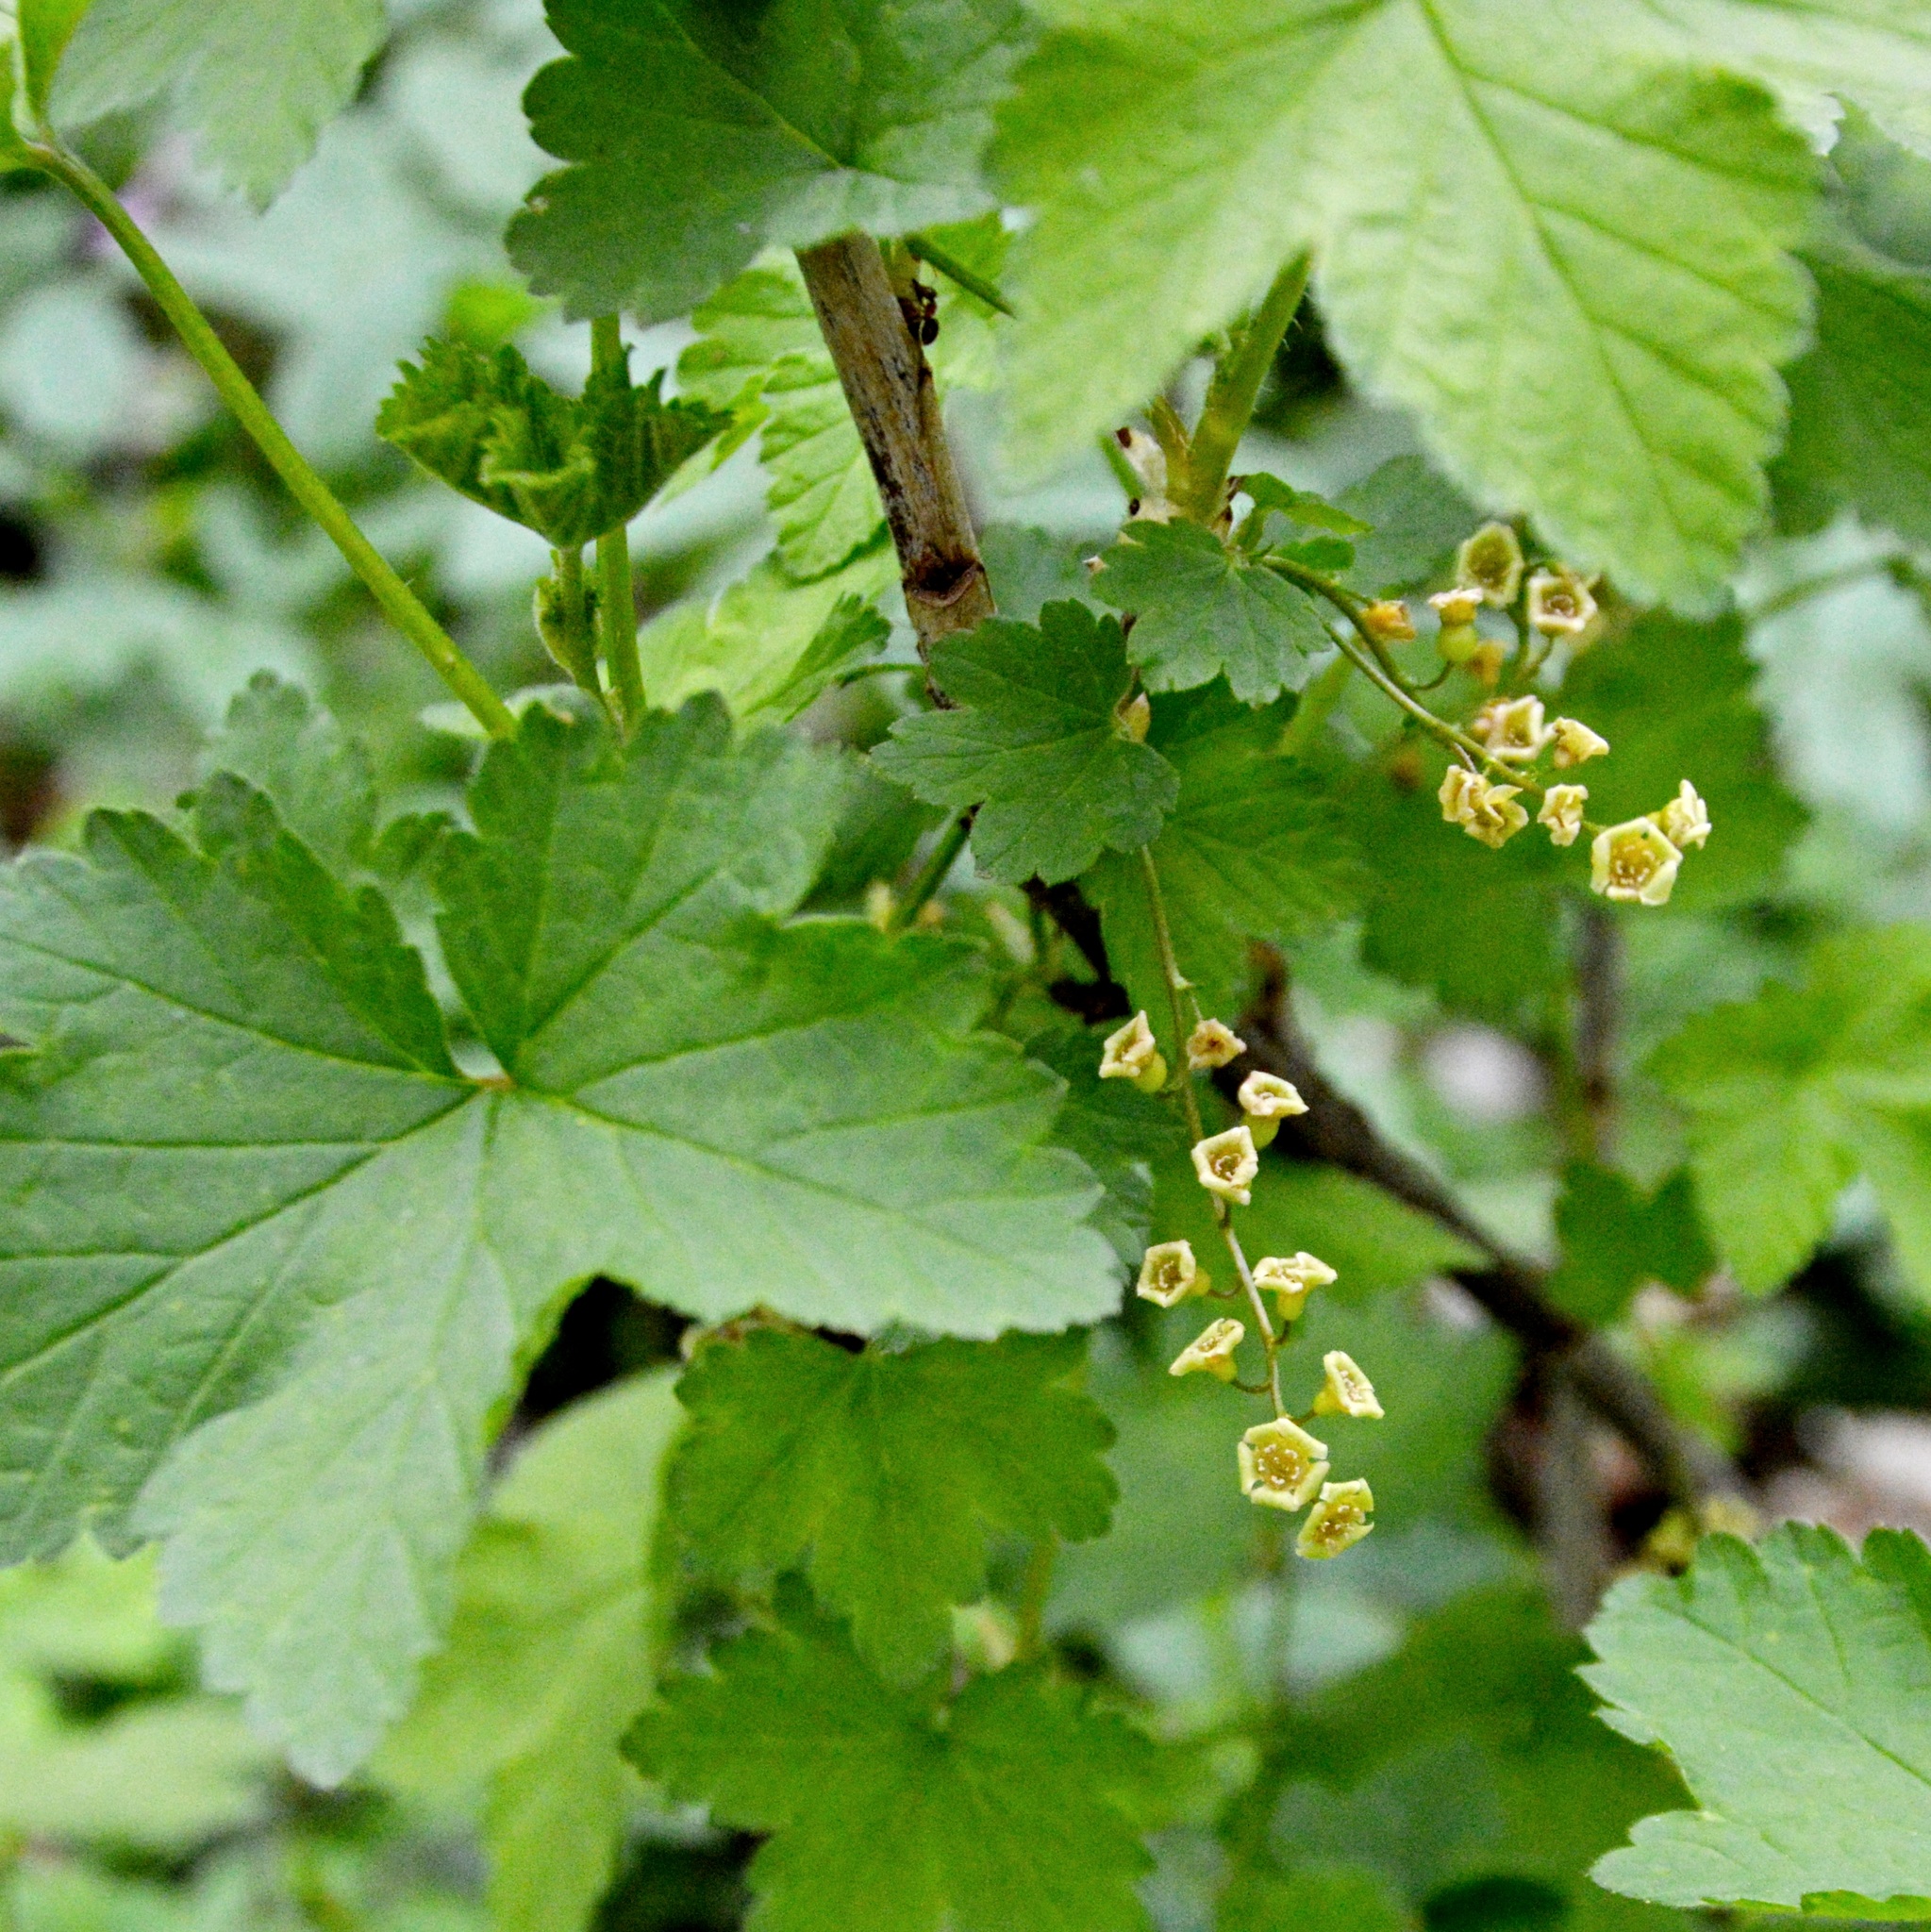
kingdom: Plantae
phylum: Tracheophyta
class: Magnoliopsida
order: Saxifragales
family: Grossulariaceae
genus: Ribes
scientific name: Ribes rubrum
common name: Red currant
